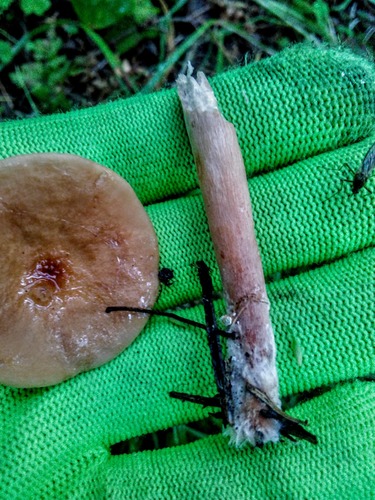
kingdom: Fungi
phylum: Basidiomycota
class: Agaricomycetes
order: Russulales
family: Russulaceae
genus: Lactarius
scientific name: Lactarius helvus
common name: Fenugreek milkcap
